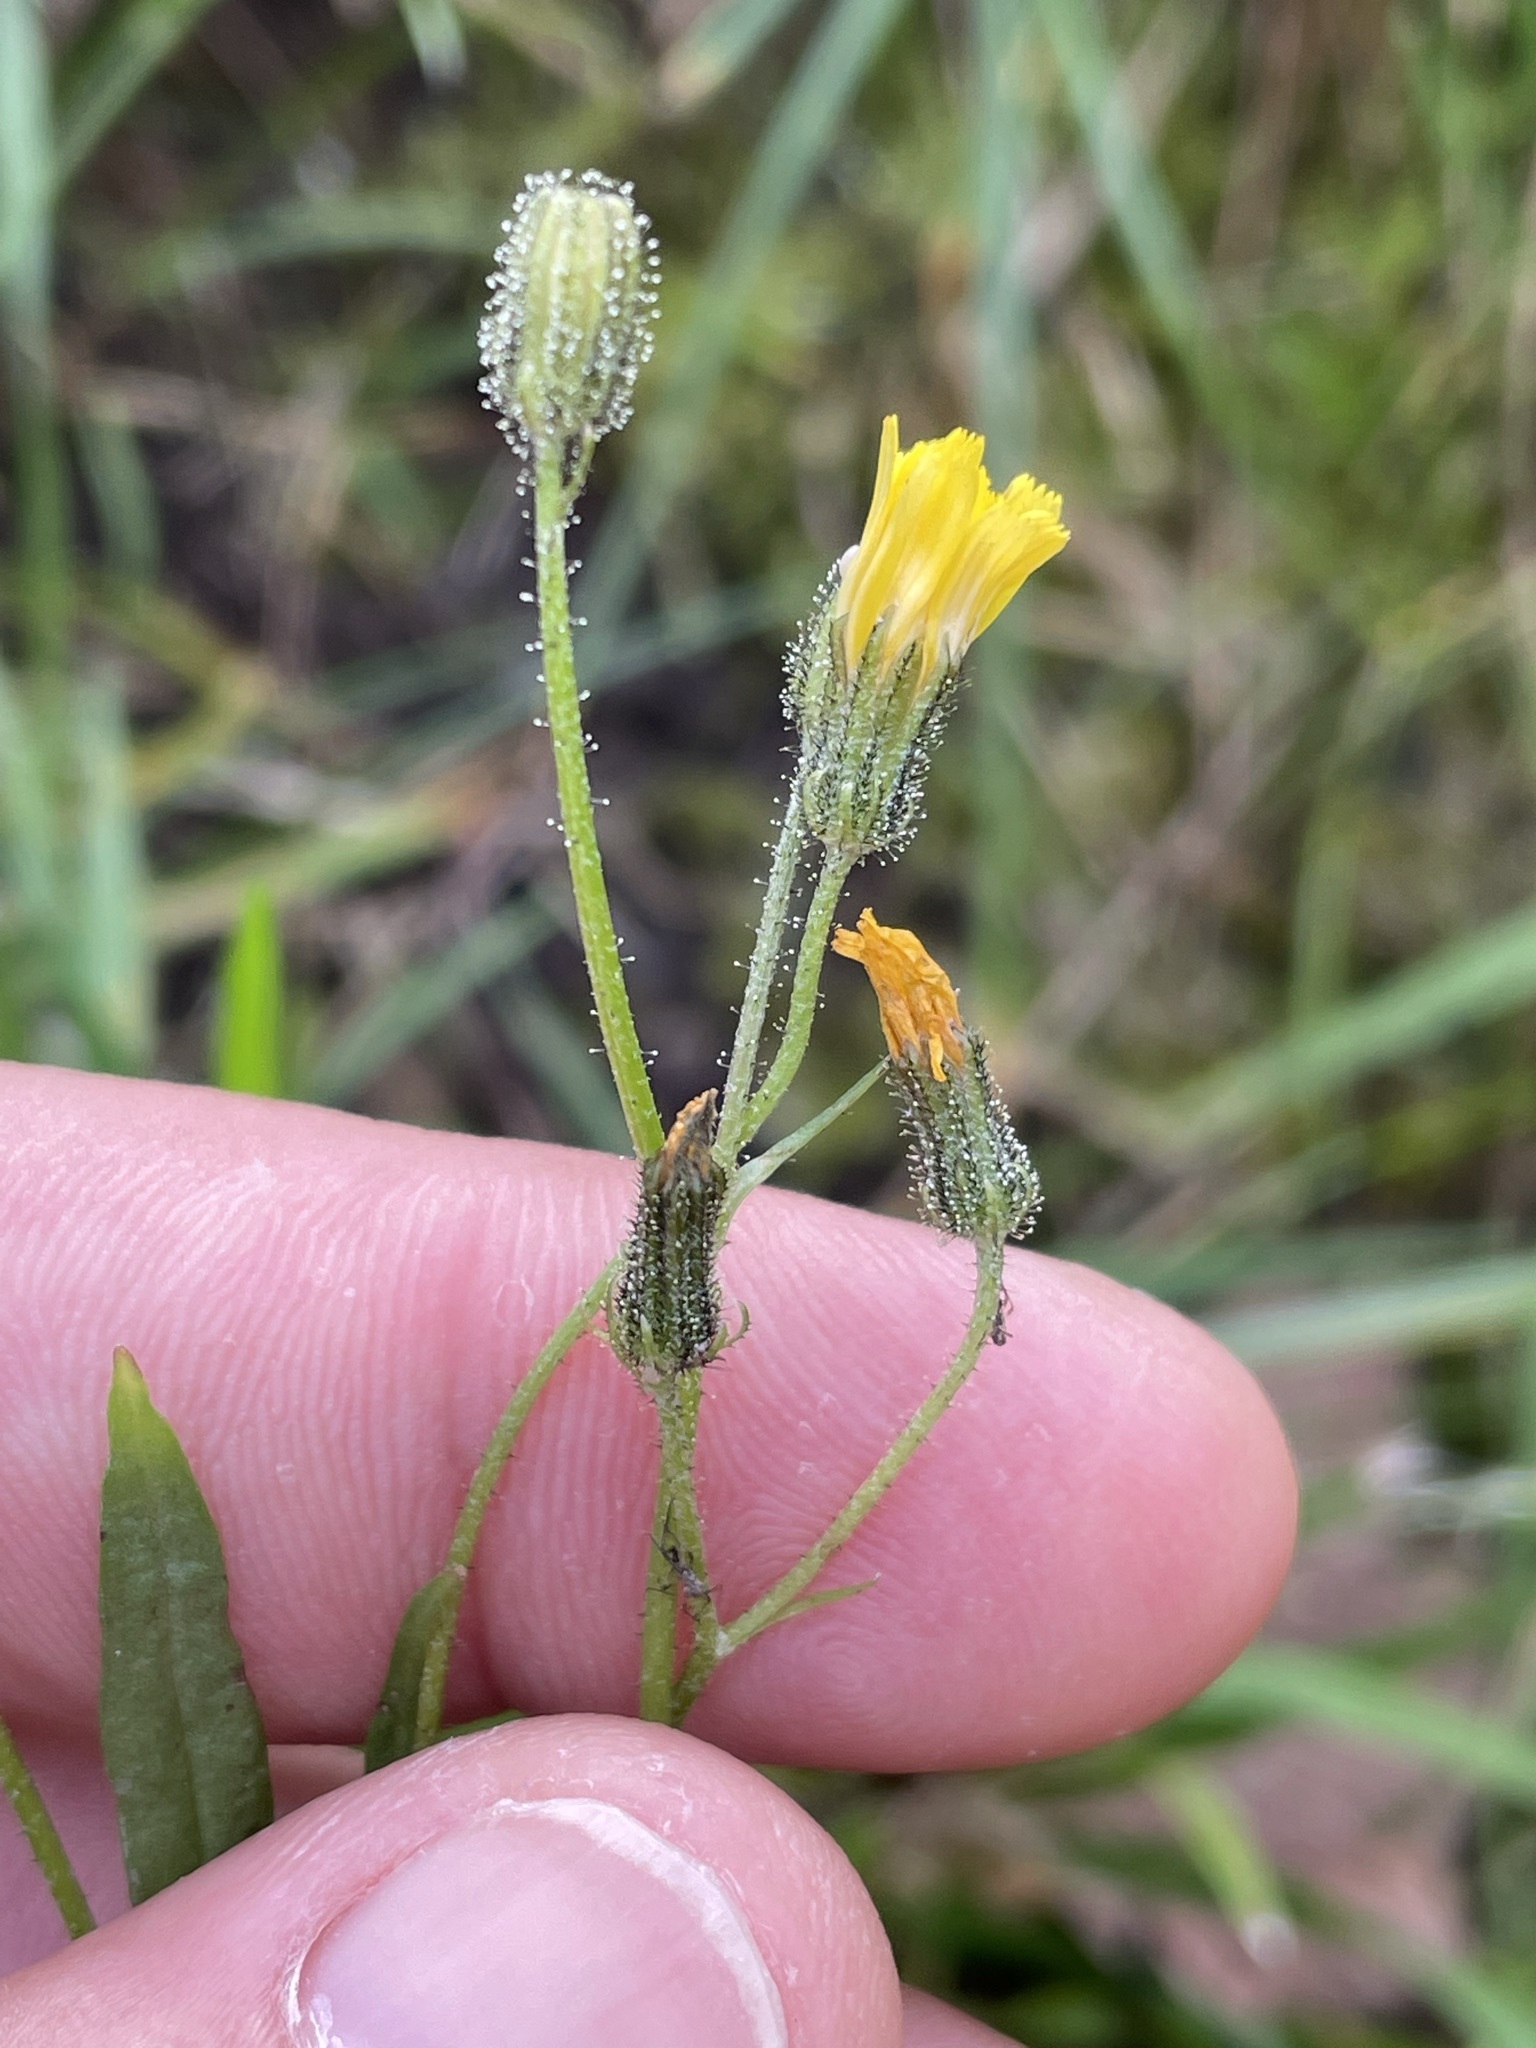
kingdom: Plantae
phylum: Tracheophyta
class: Magnoliopsida
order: Asterales
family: Asteraceae
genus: Crepis
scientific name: Crepis capillaris
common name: Smooth hawksbeard
